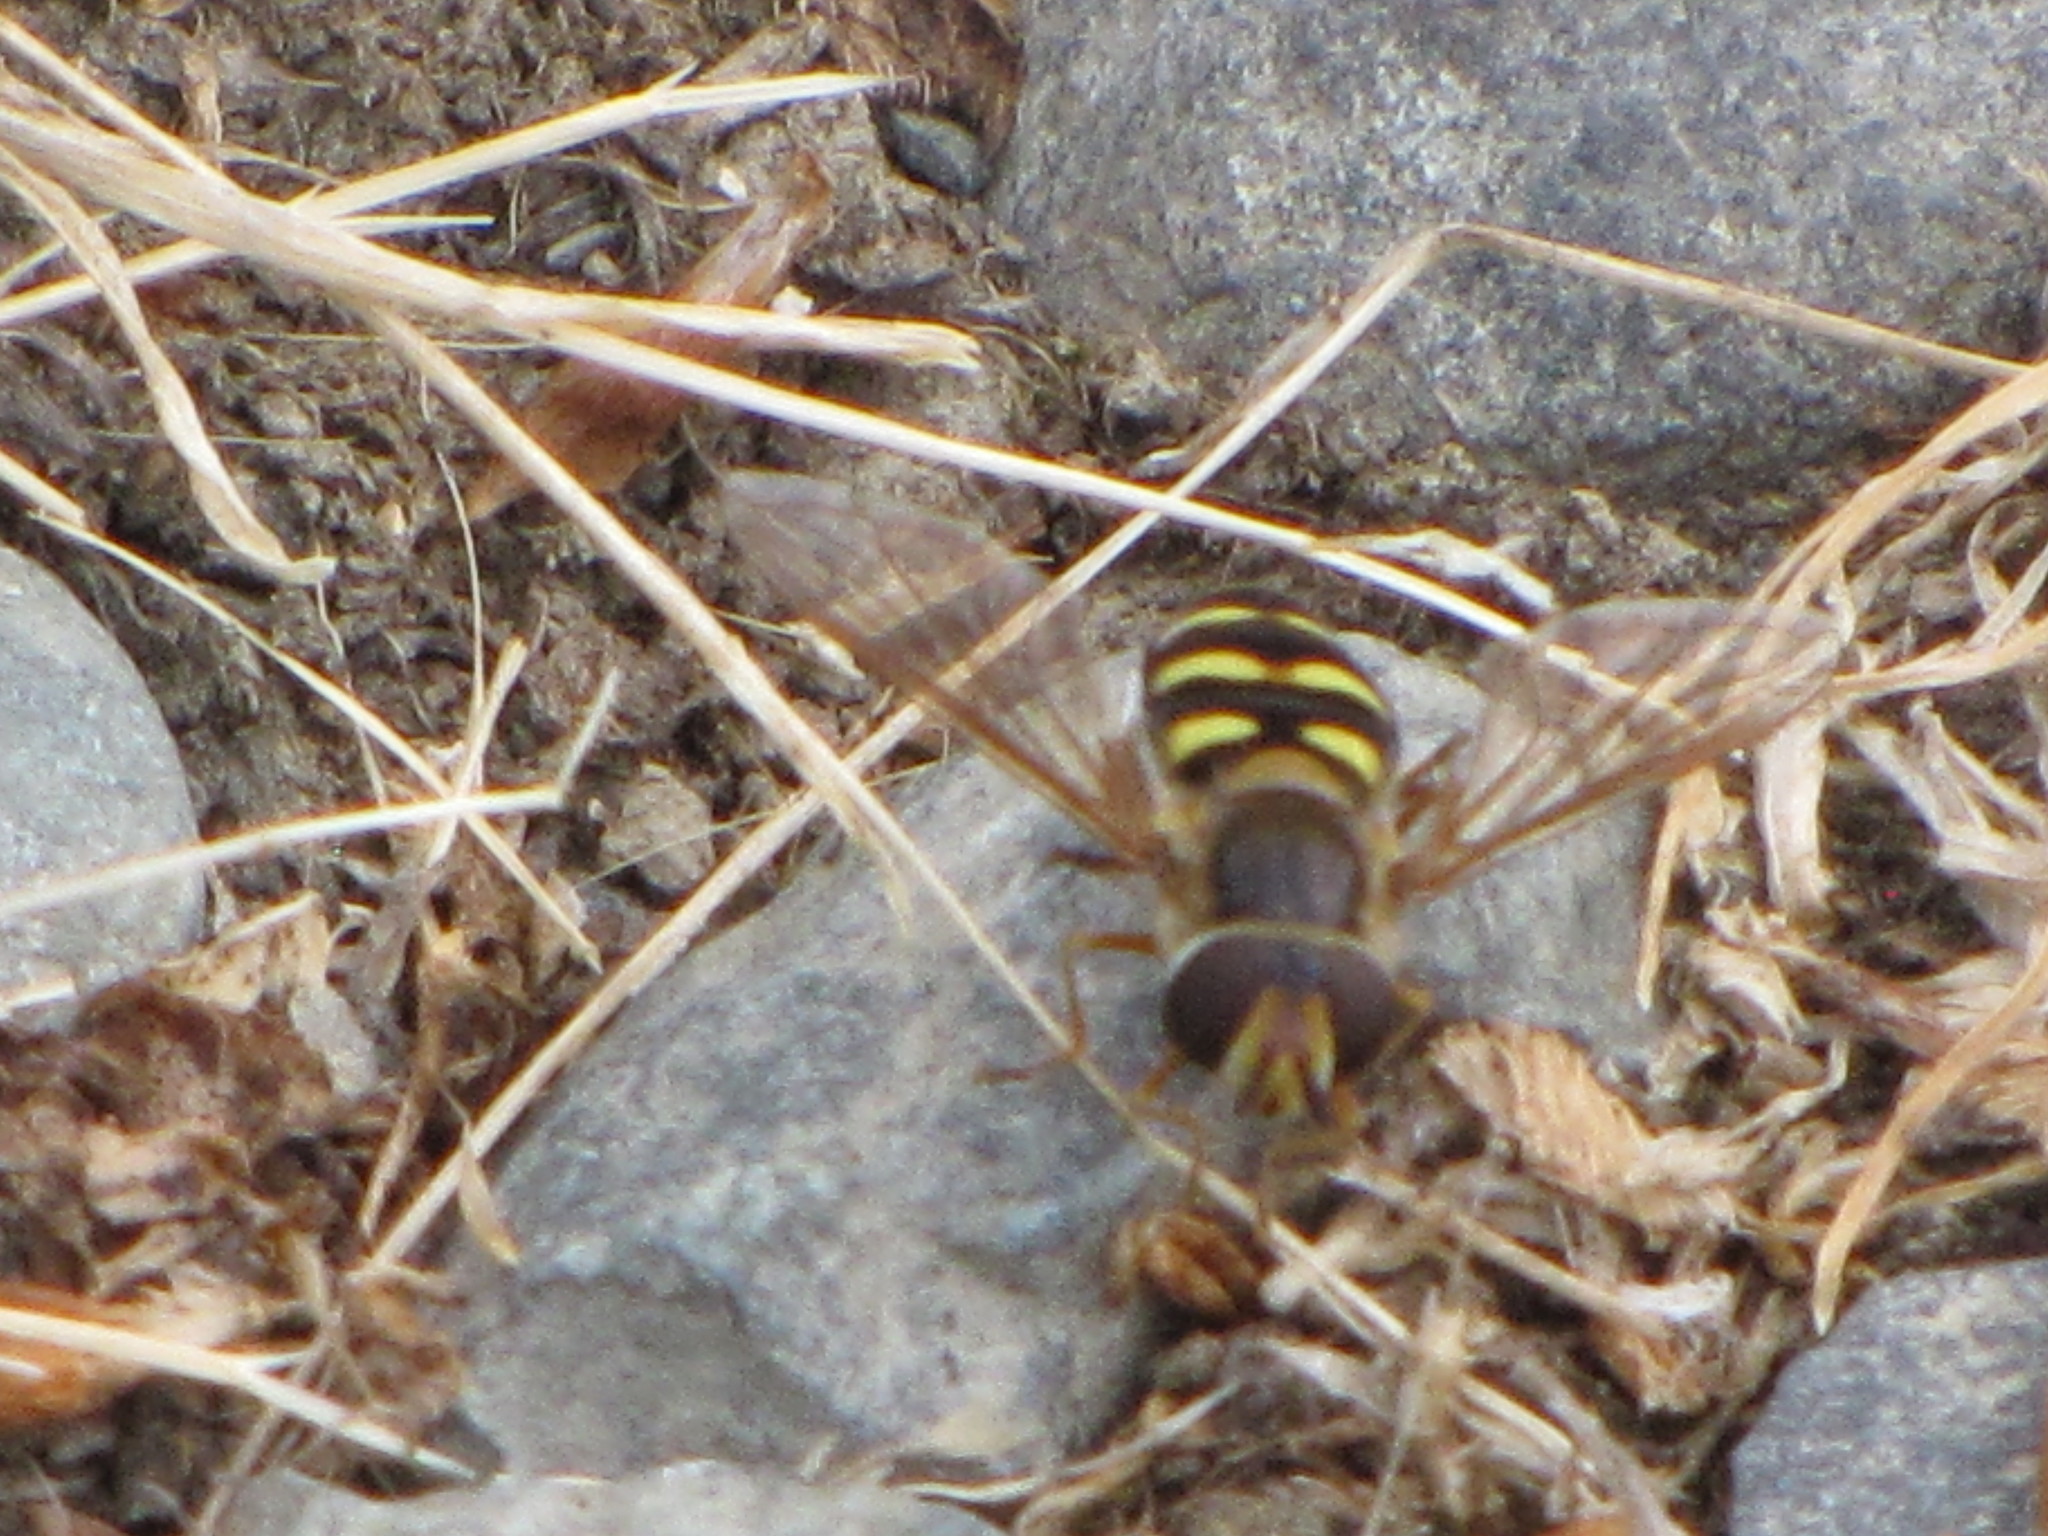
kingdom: Animalia
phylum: Arthropoda
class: Insecta
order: Diptera
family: Syrphidae
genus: Eupeodes
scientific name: Eupeodes fumipennis
